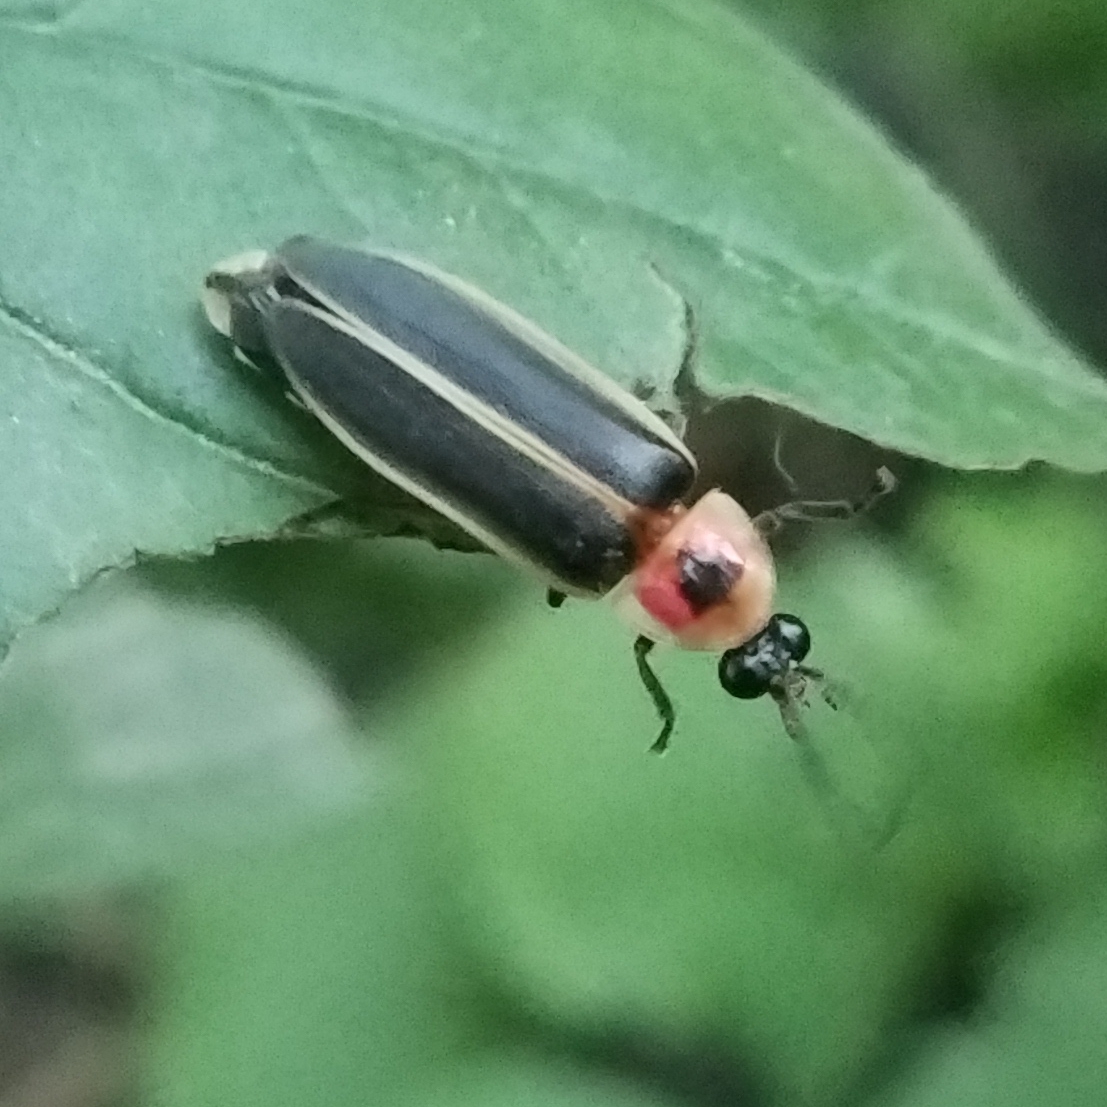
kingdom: Animalia
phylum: Arthropoda
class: Insecta
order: Coleoptera
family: Lampyridae
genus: Photinus
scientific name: Photinus pyralis
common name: Big dipper firefly
